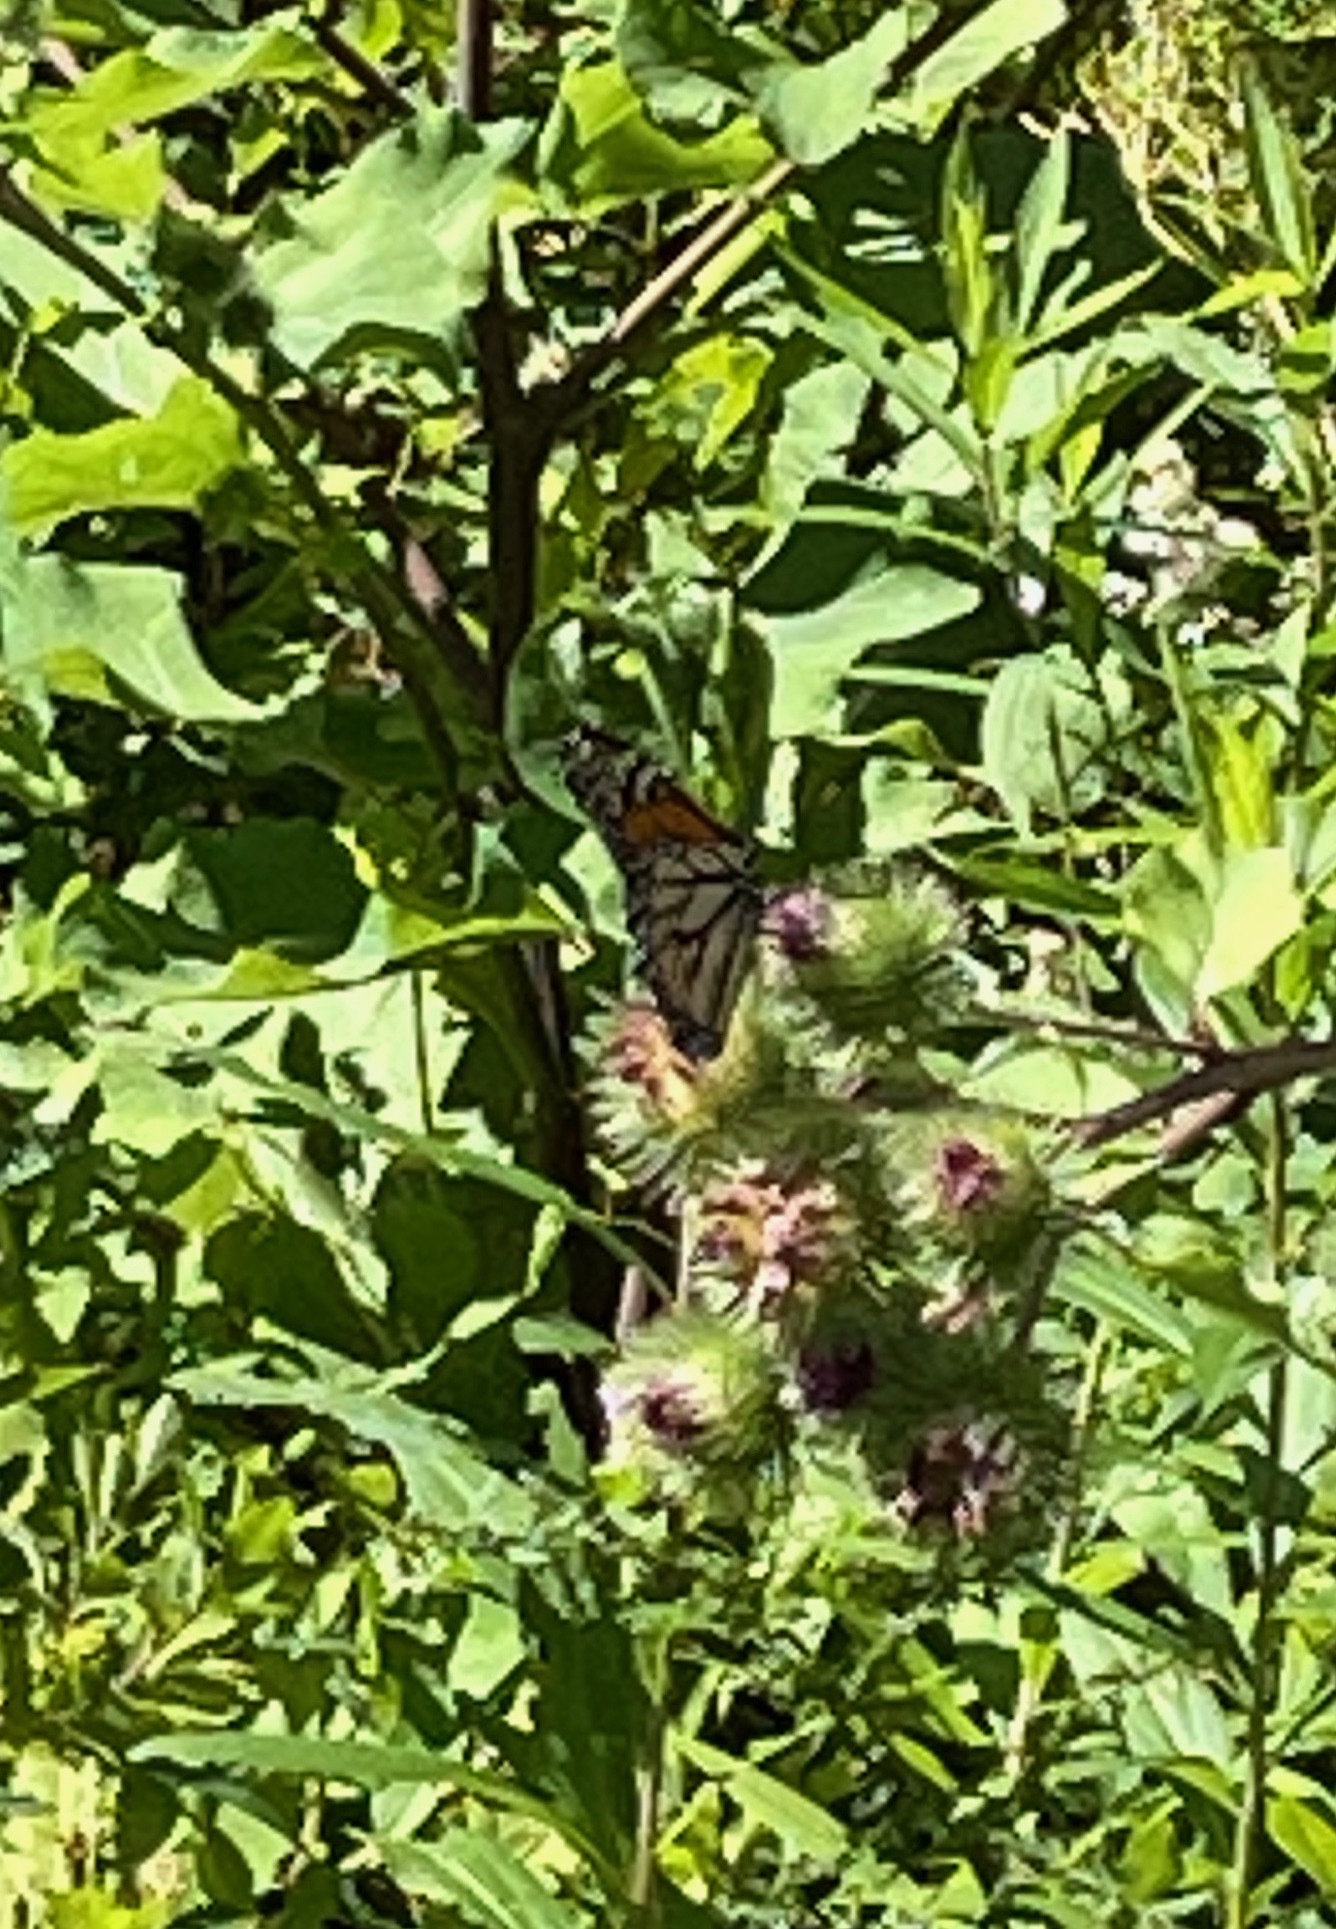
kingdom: Animalia
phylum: Arthropoda
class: Insecta
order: Lepidoptera
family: Nymphalidae
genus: Danaus
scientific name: Danaus plexippus
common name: Monarch
